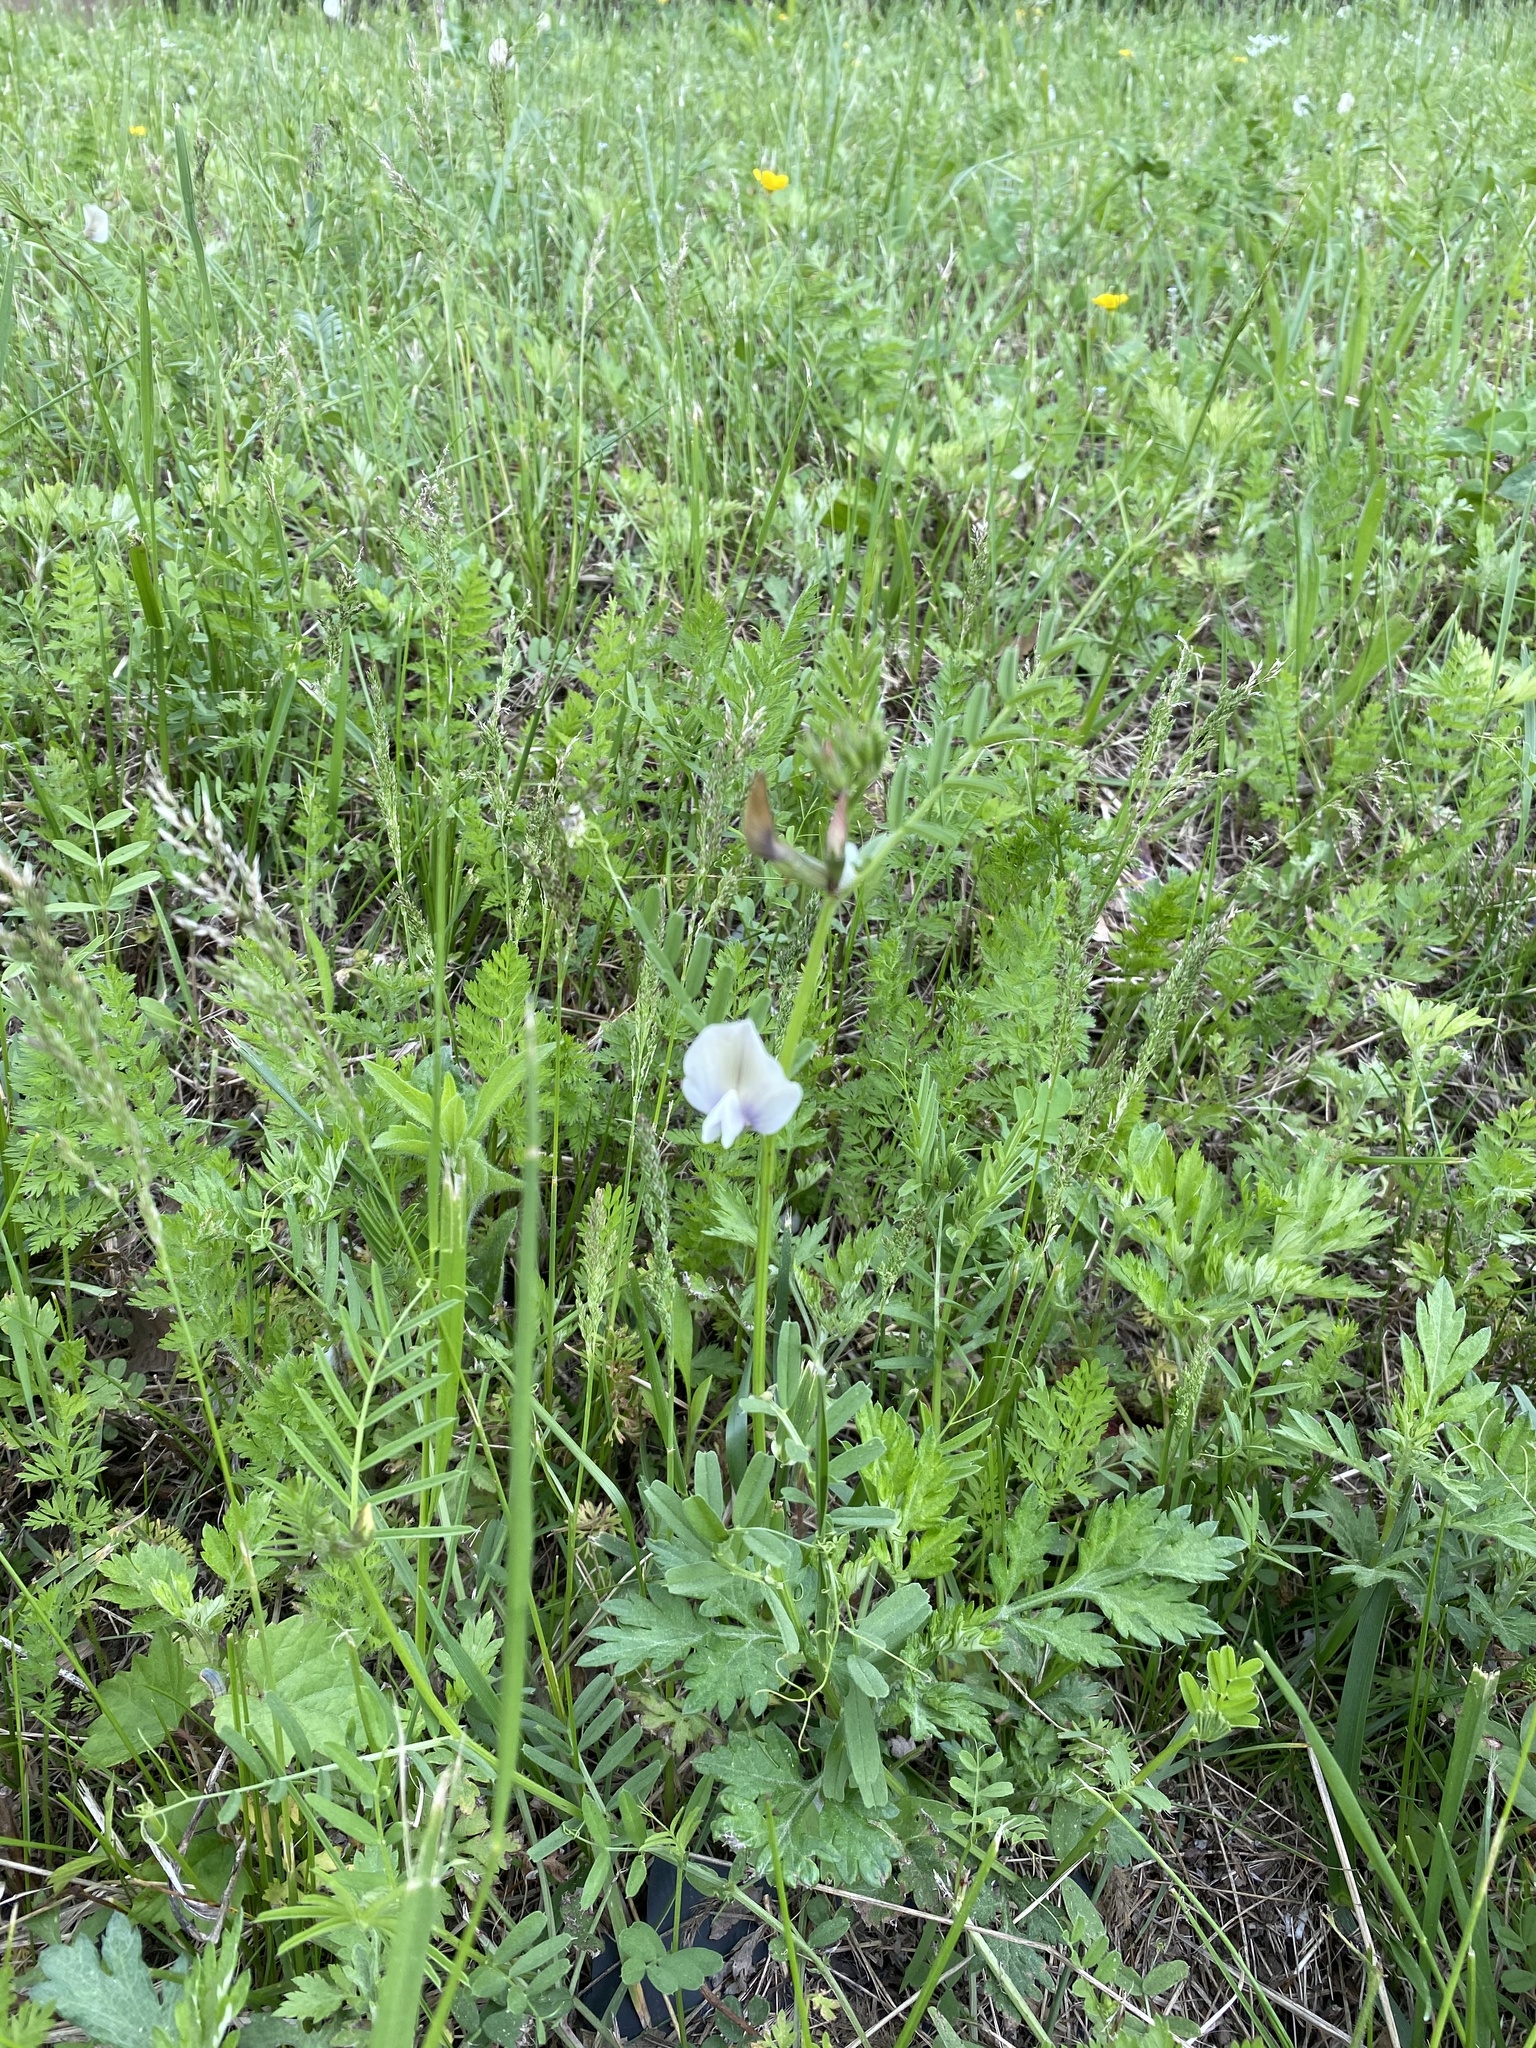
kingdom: Plantae
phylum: Tracheophyta
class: Magnoliopsida
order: Fabales
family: Fabaceae
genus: Vicia
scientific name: Vicia grandiflora
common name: Large yellow vetch
